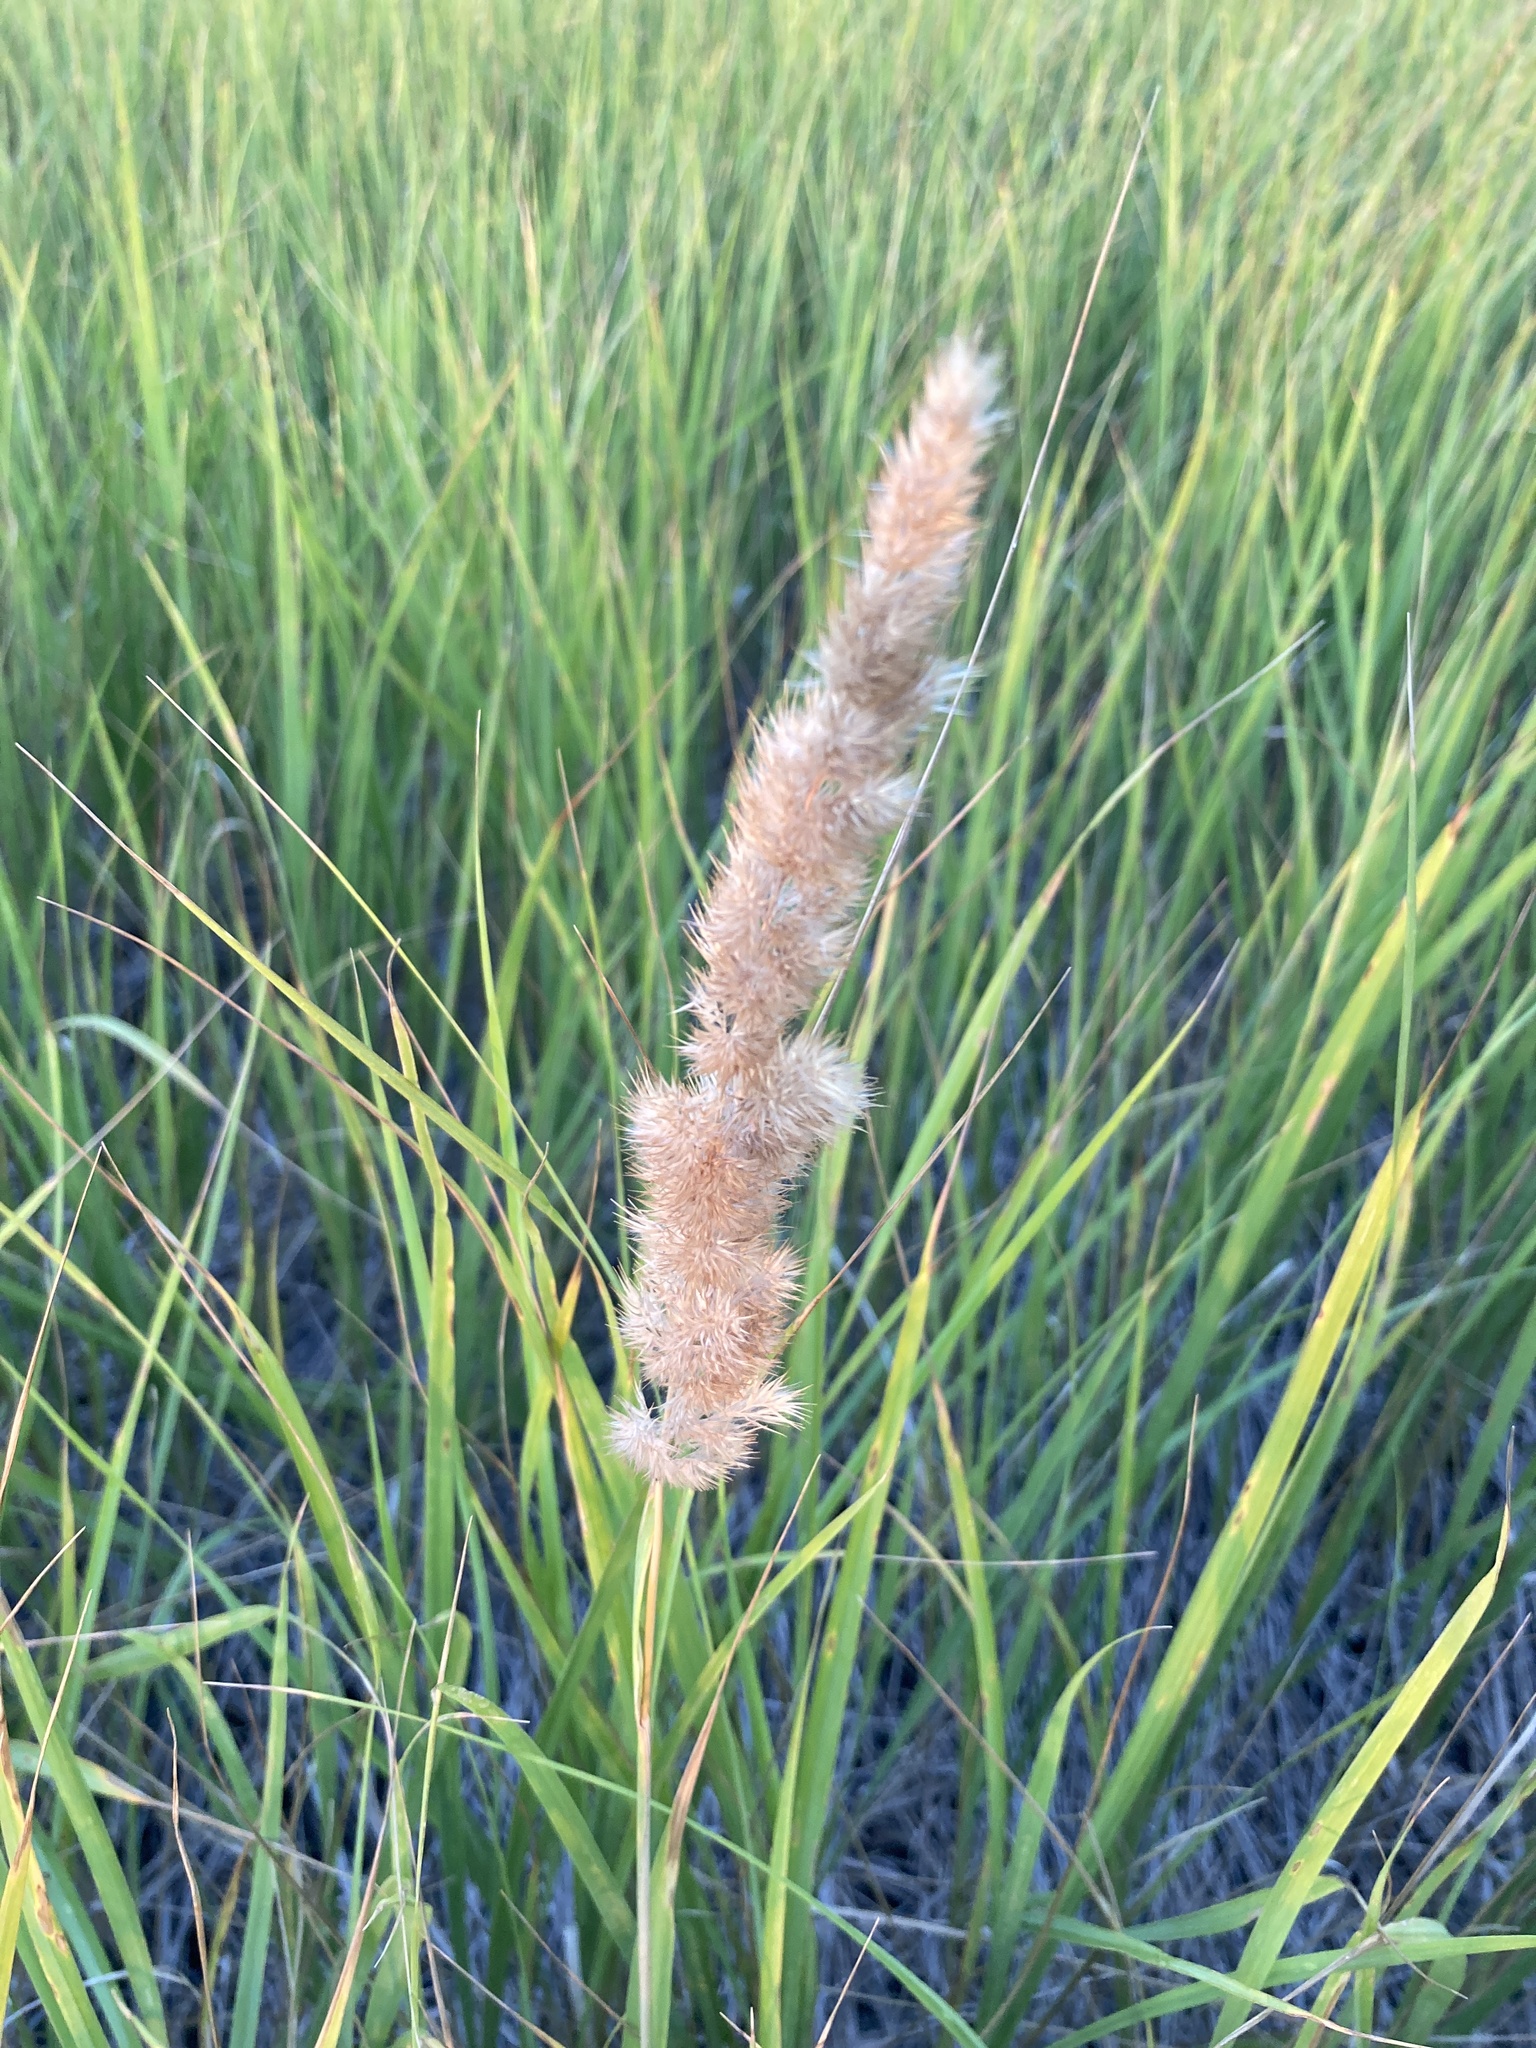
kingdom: Plantae
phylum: Tracheophyta
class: Liliopsida
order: Poales
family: Poaceae
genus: Calamagrostis
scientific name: Calamagrostis epigejos
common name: Wood small-reed
